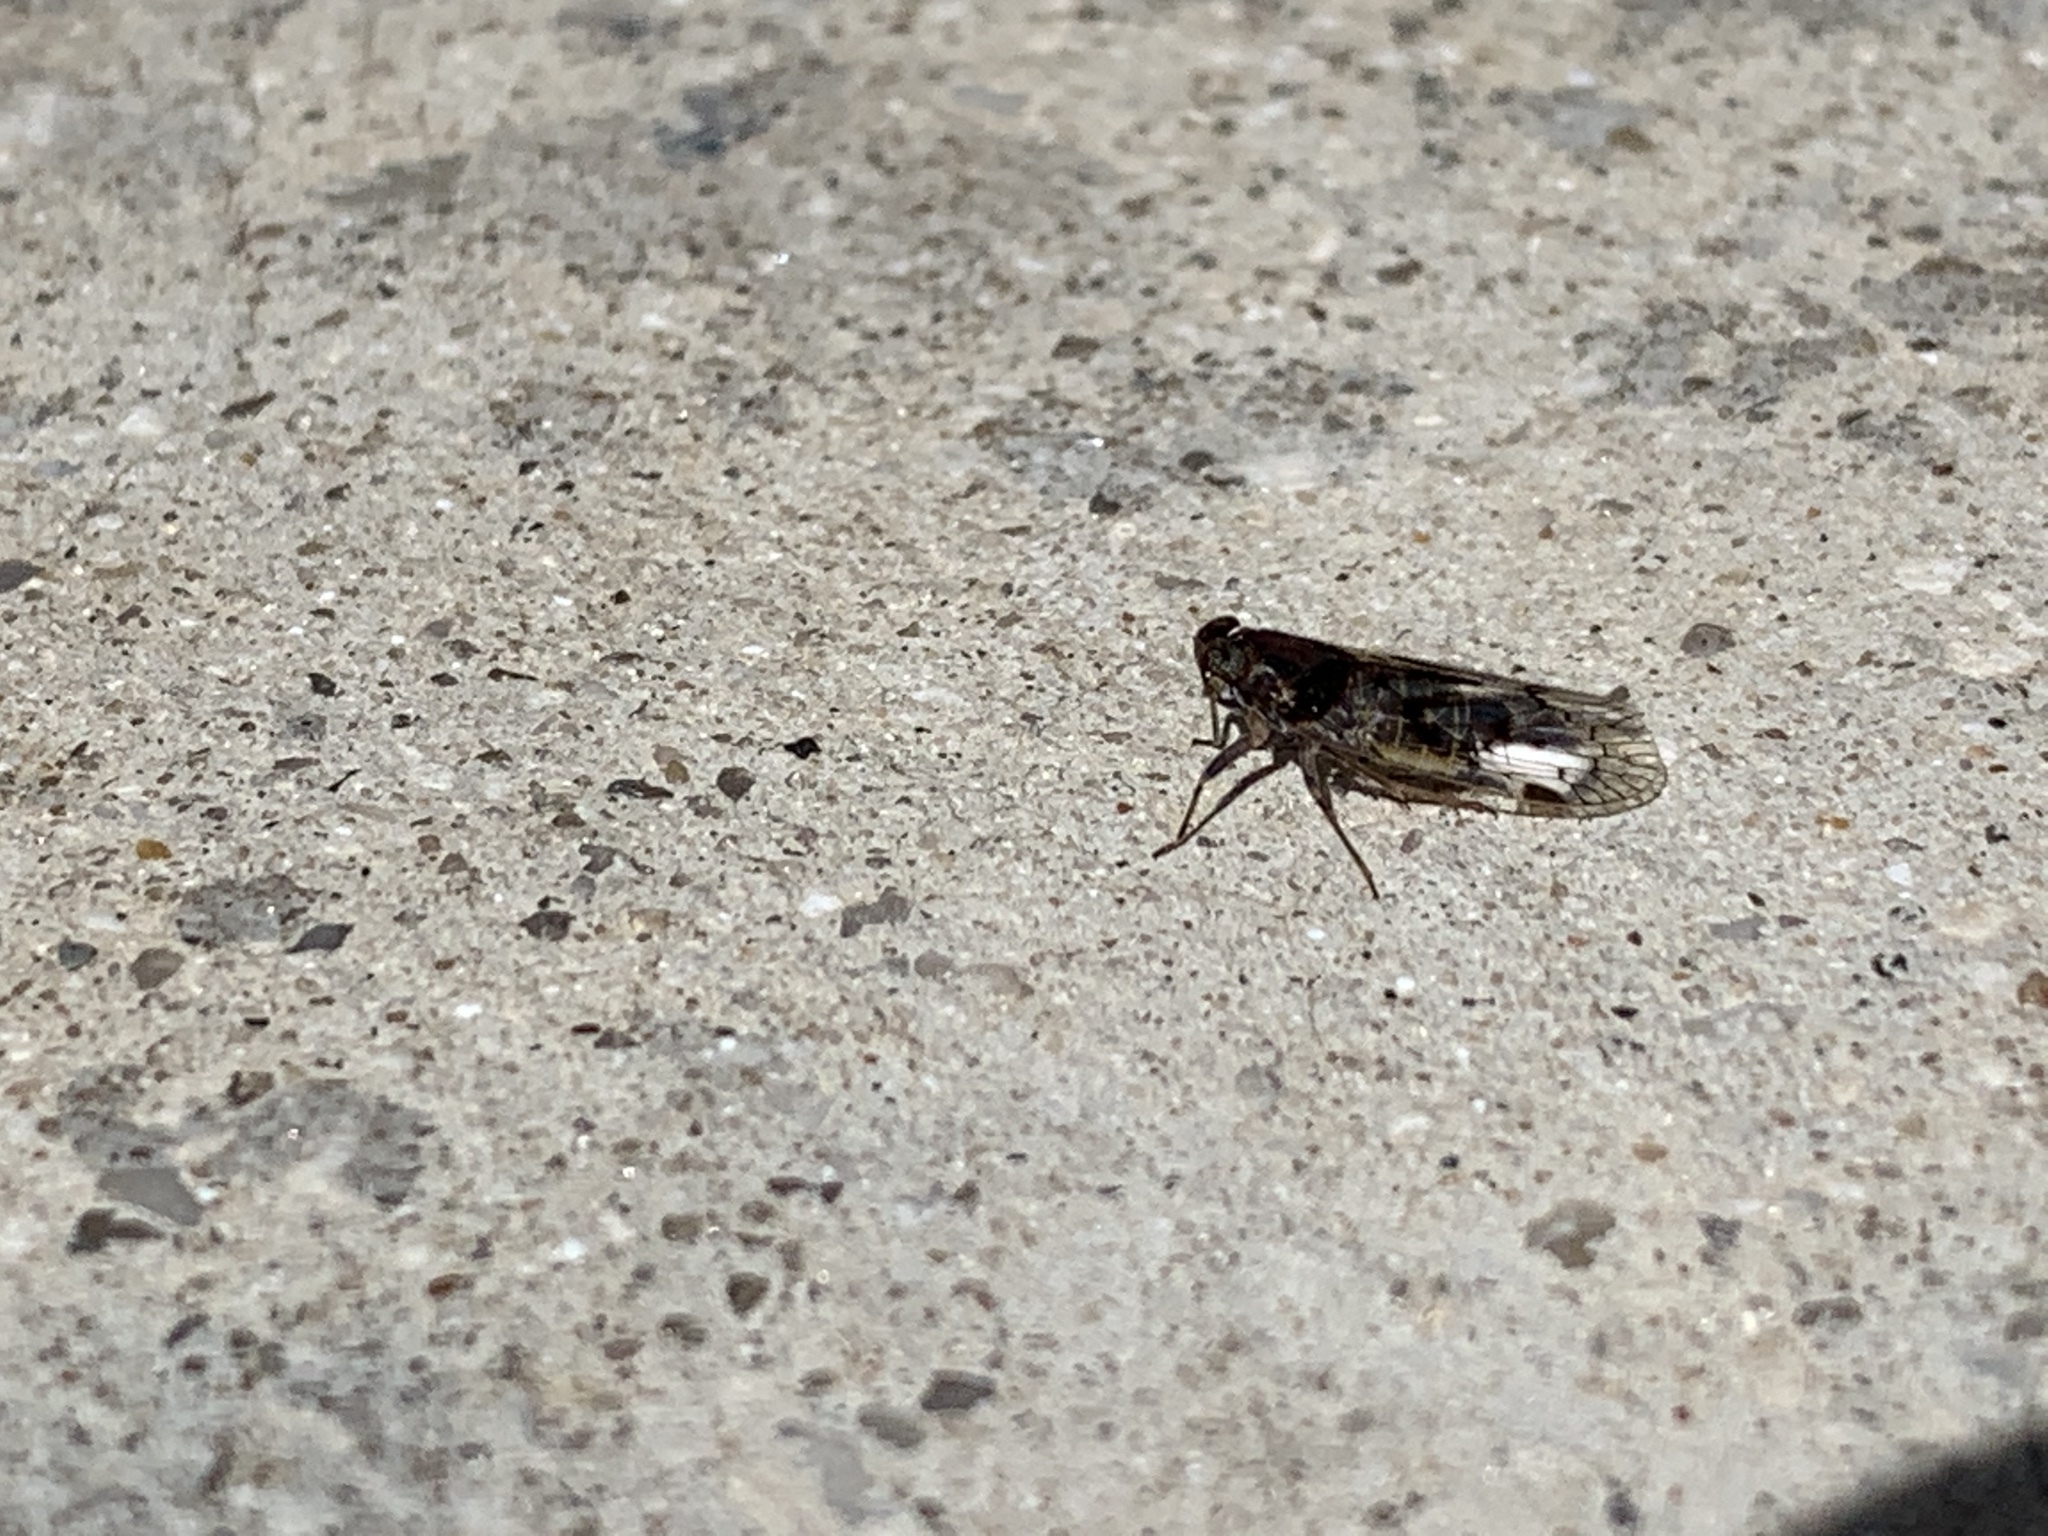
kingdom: Animalia
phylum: Arthropoda
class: Insecta
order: Hemiptera
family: Cixiidae
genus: Melanoliarus
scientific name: Melanoliarus aridus
